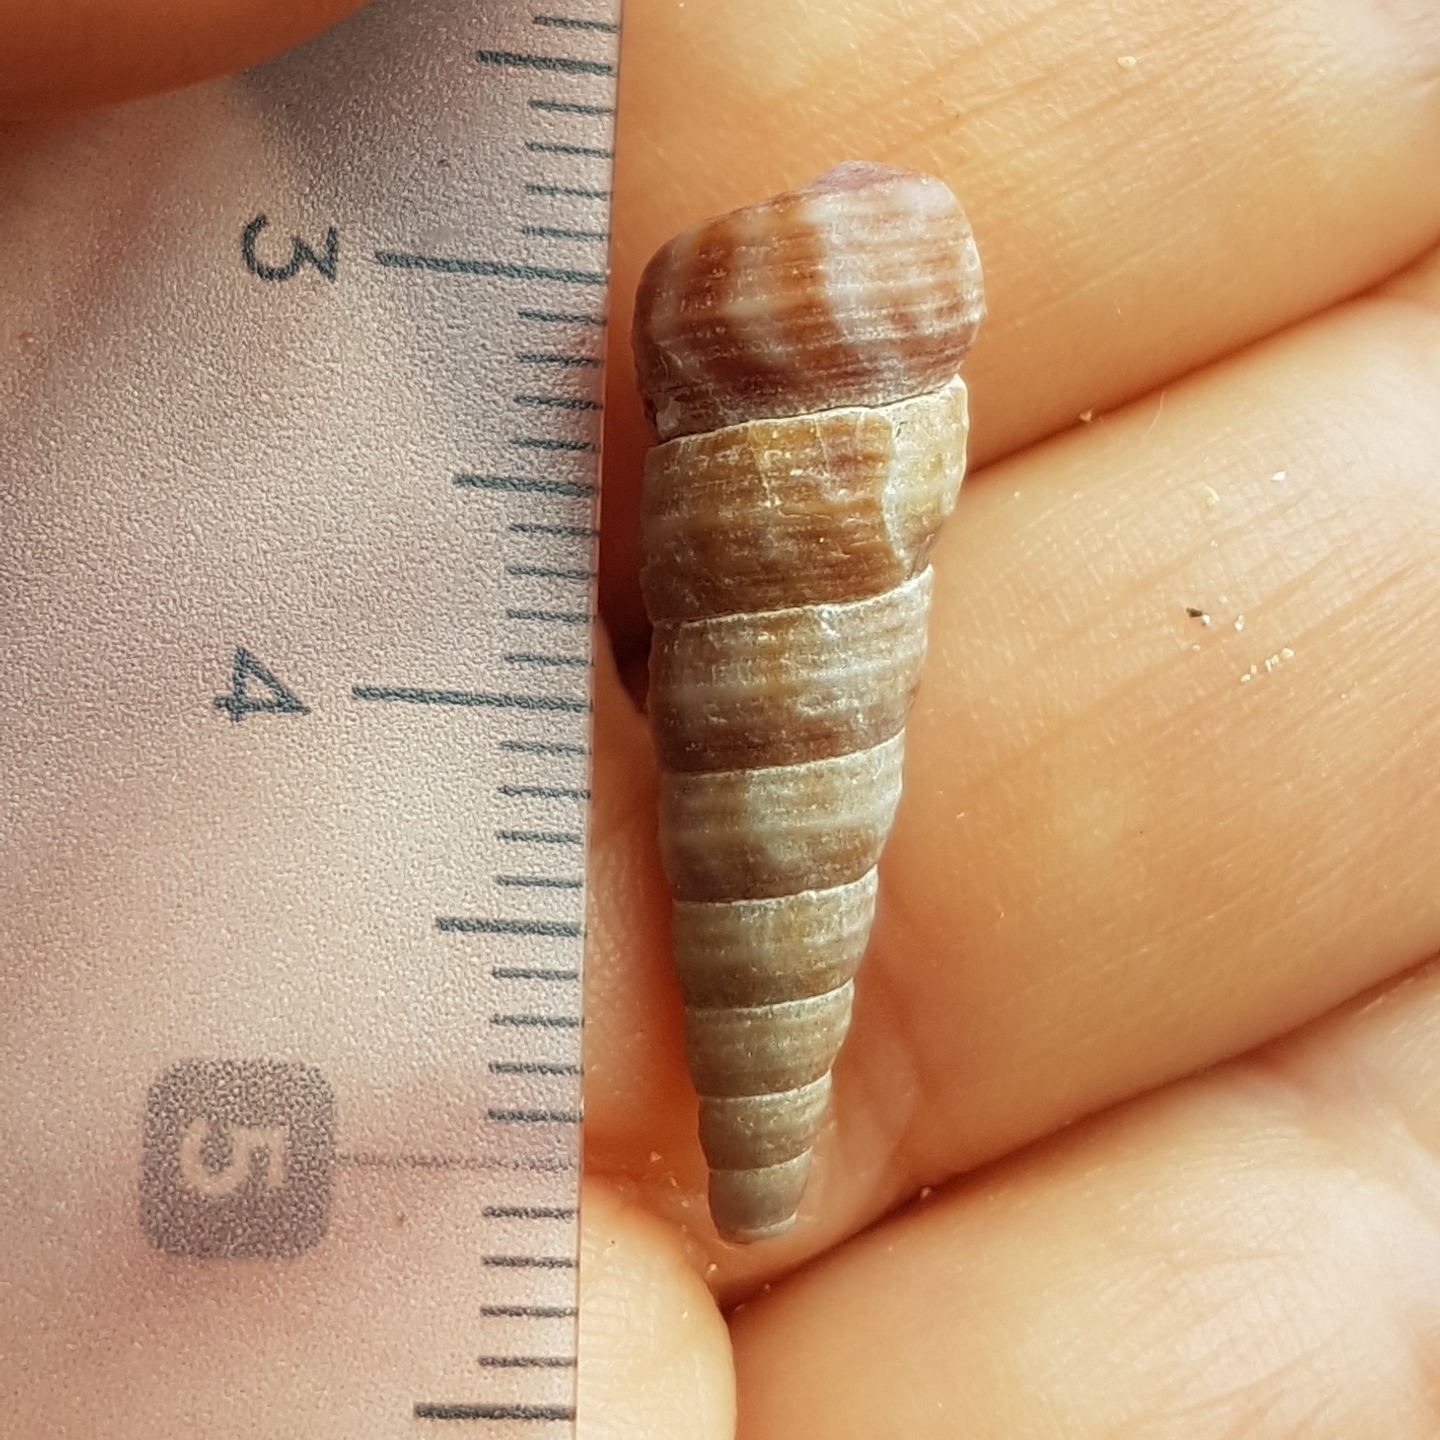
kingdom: Animalia
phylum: Mollusca
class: Gastropoda
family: Turritellidae
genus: Turritellinella
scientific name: Turritellinella tricarinata
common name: Auger shell
